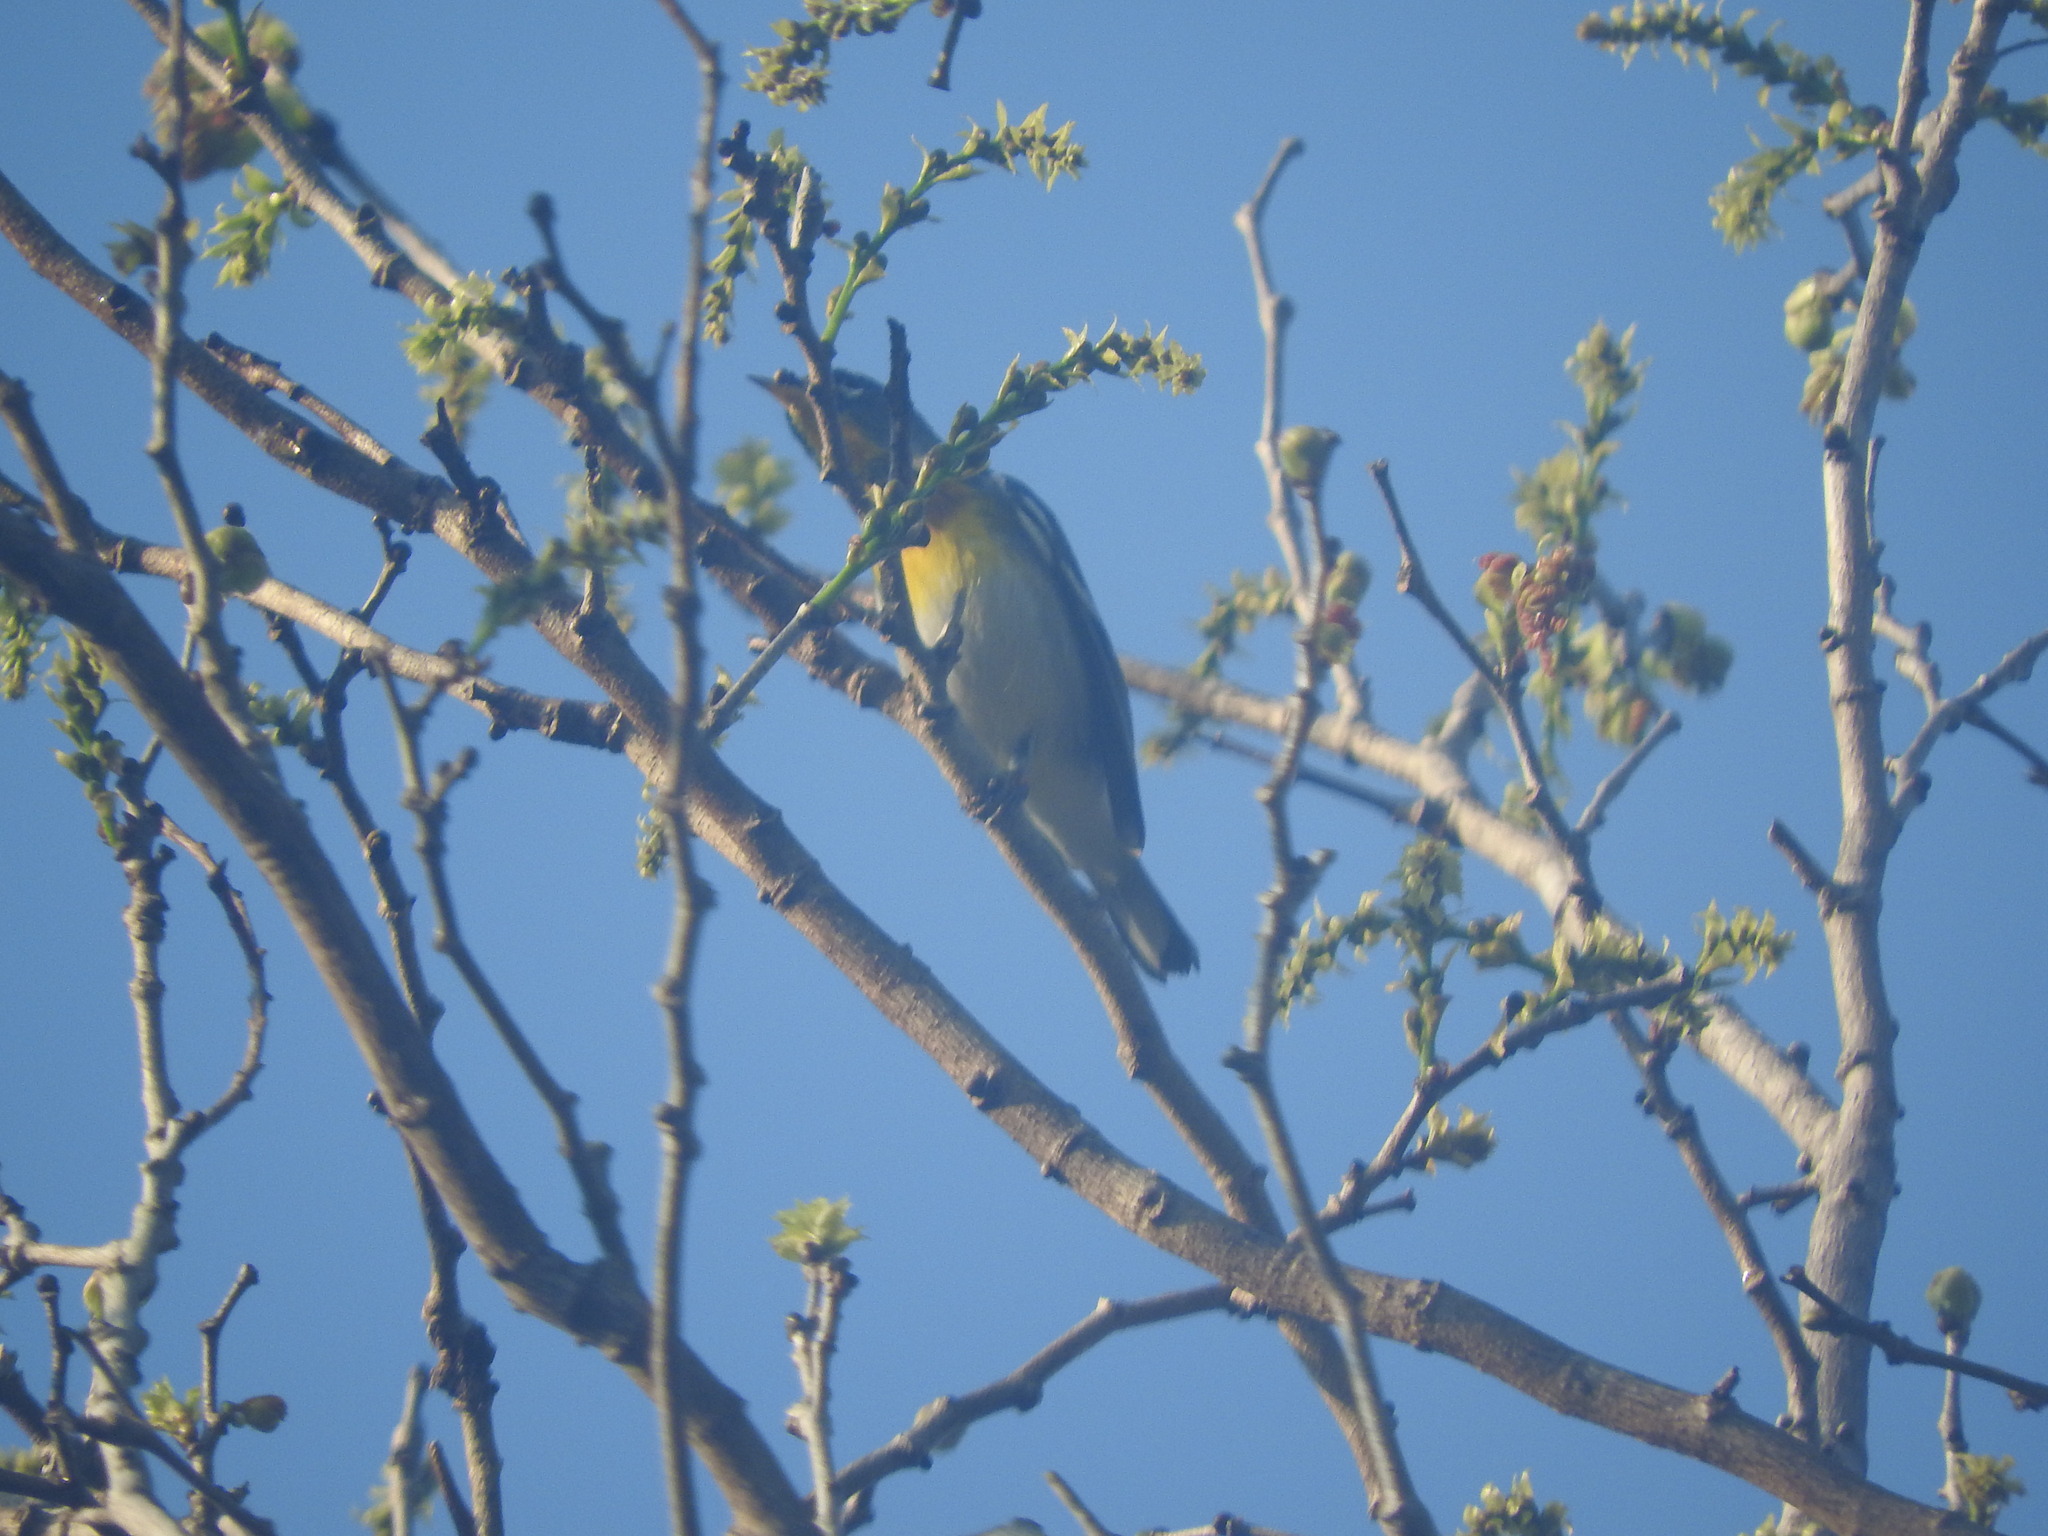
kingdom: Animalia
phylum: Chordata
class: Aves
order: Passeriformes
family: Parulidae
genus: Setophaga
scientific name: Setophaga americana
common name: Northern parula
